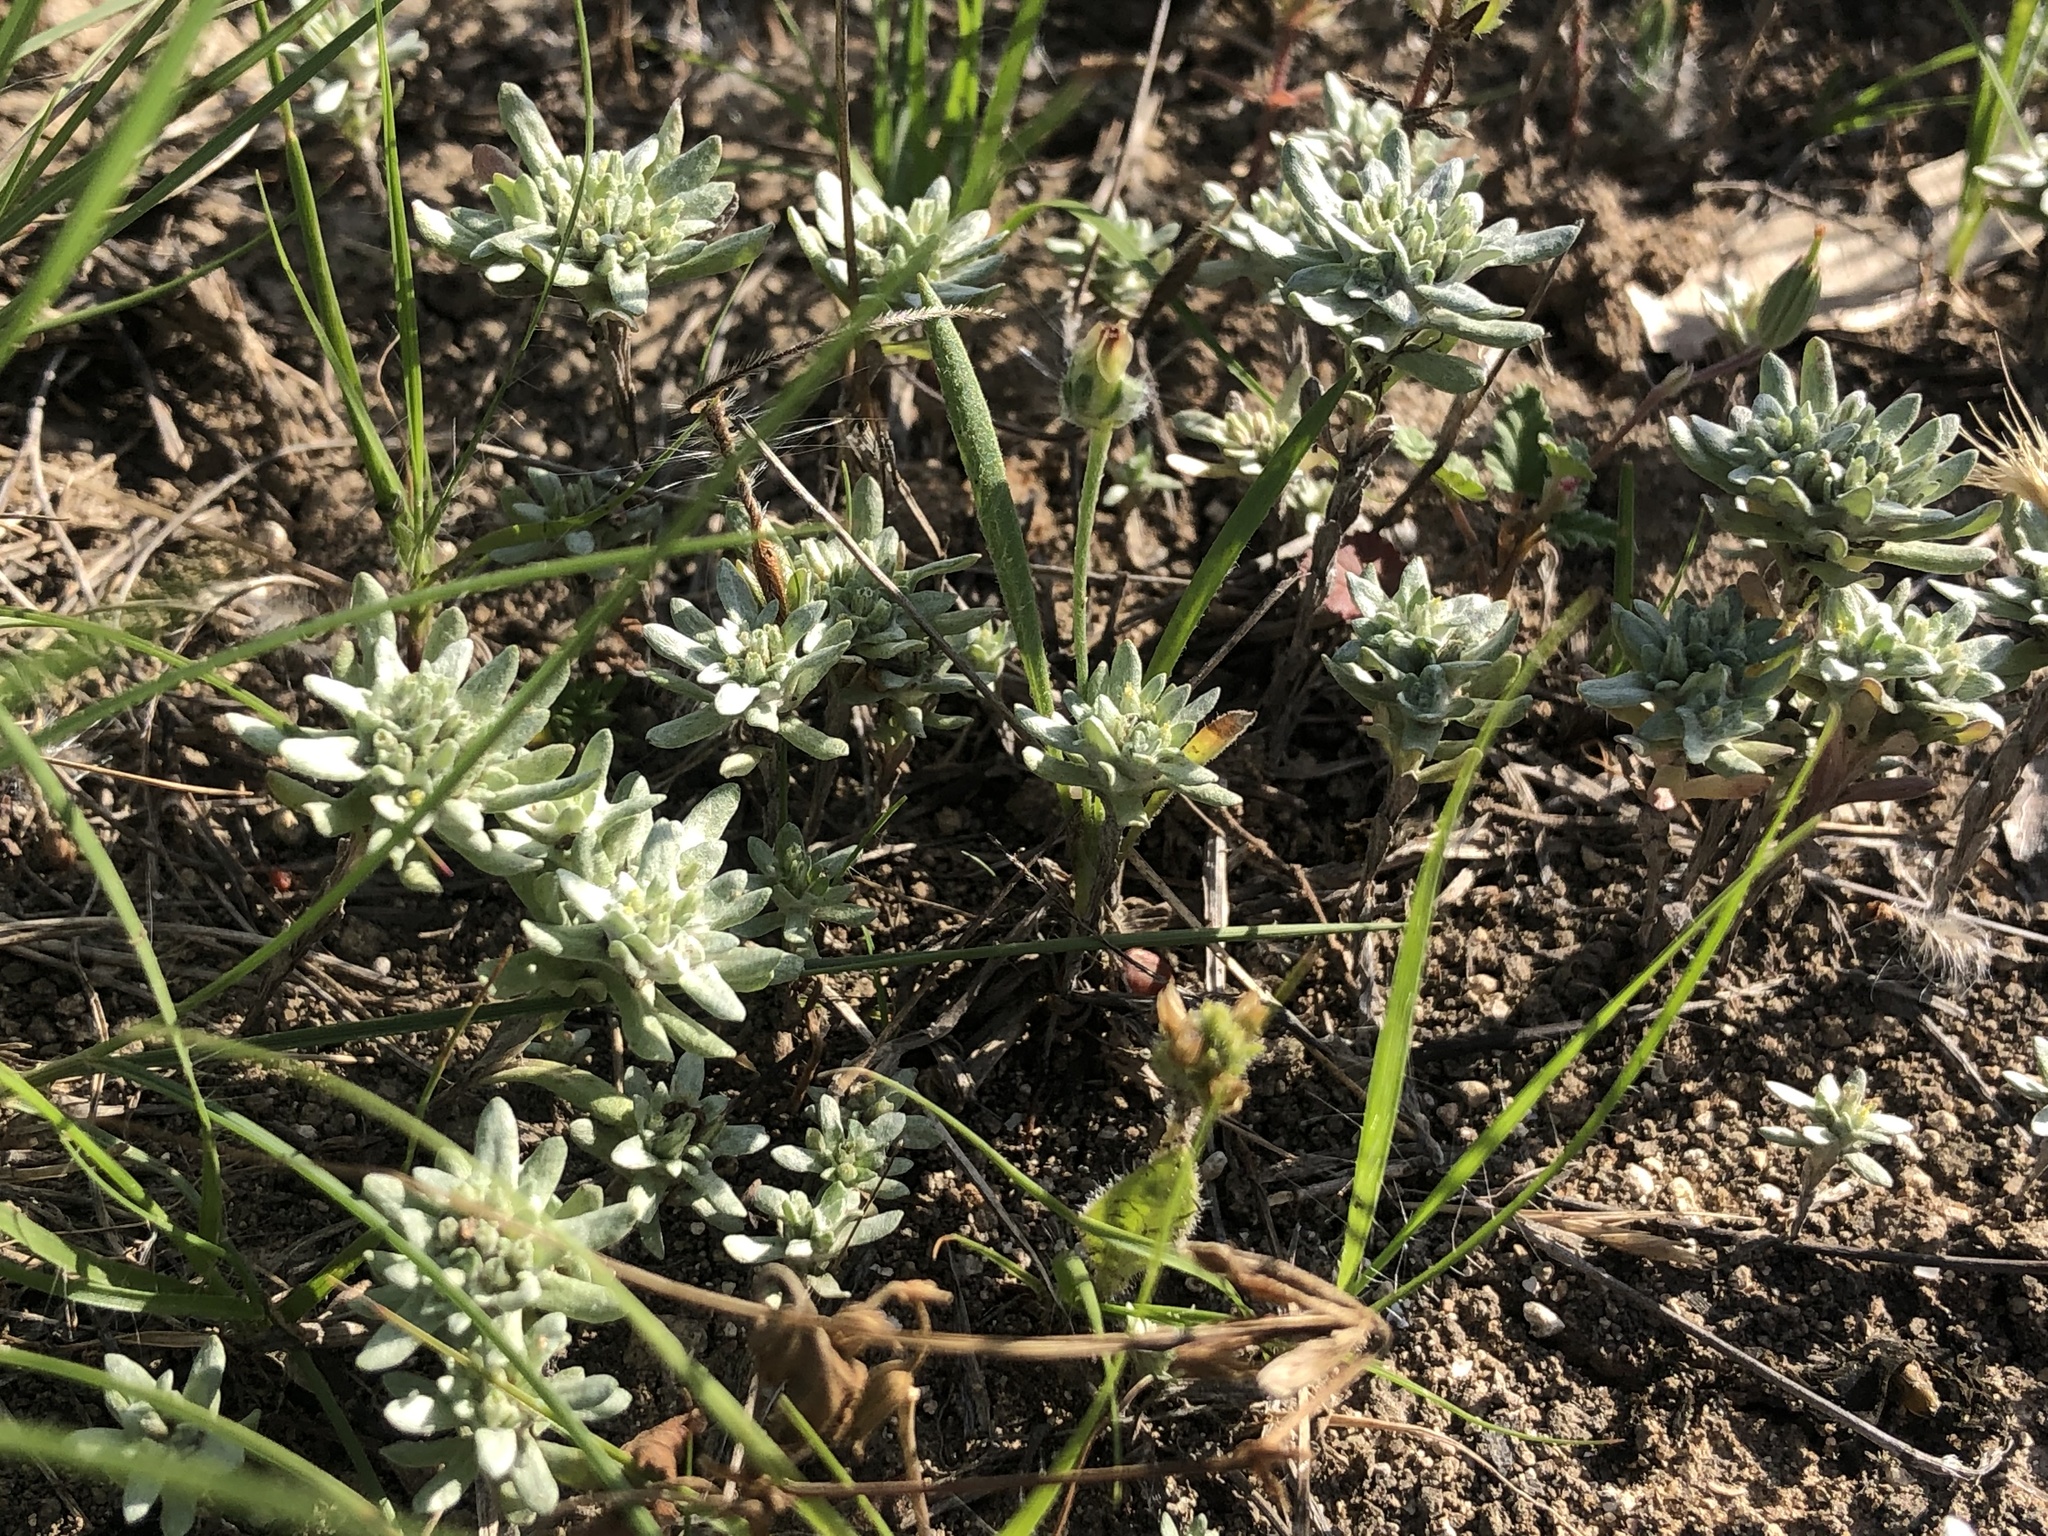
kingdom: Plantae
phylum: Tracheophyta
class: Magnoliopsida
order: Asterales
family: Asteraceae
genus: Diaperia
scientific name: Diaperia prolifera
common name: Big-head rabbit-tobacco
